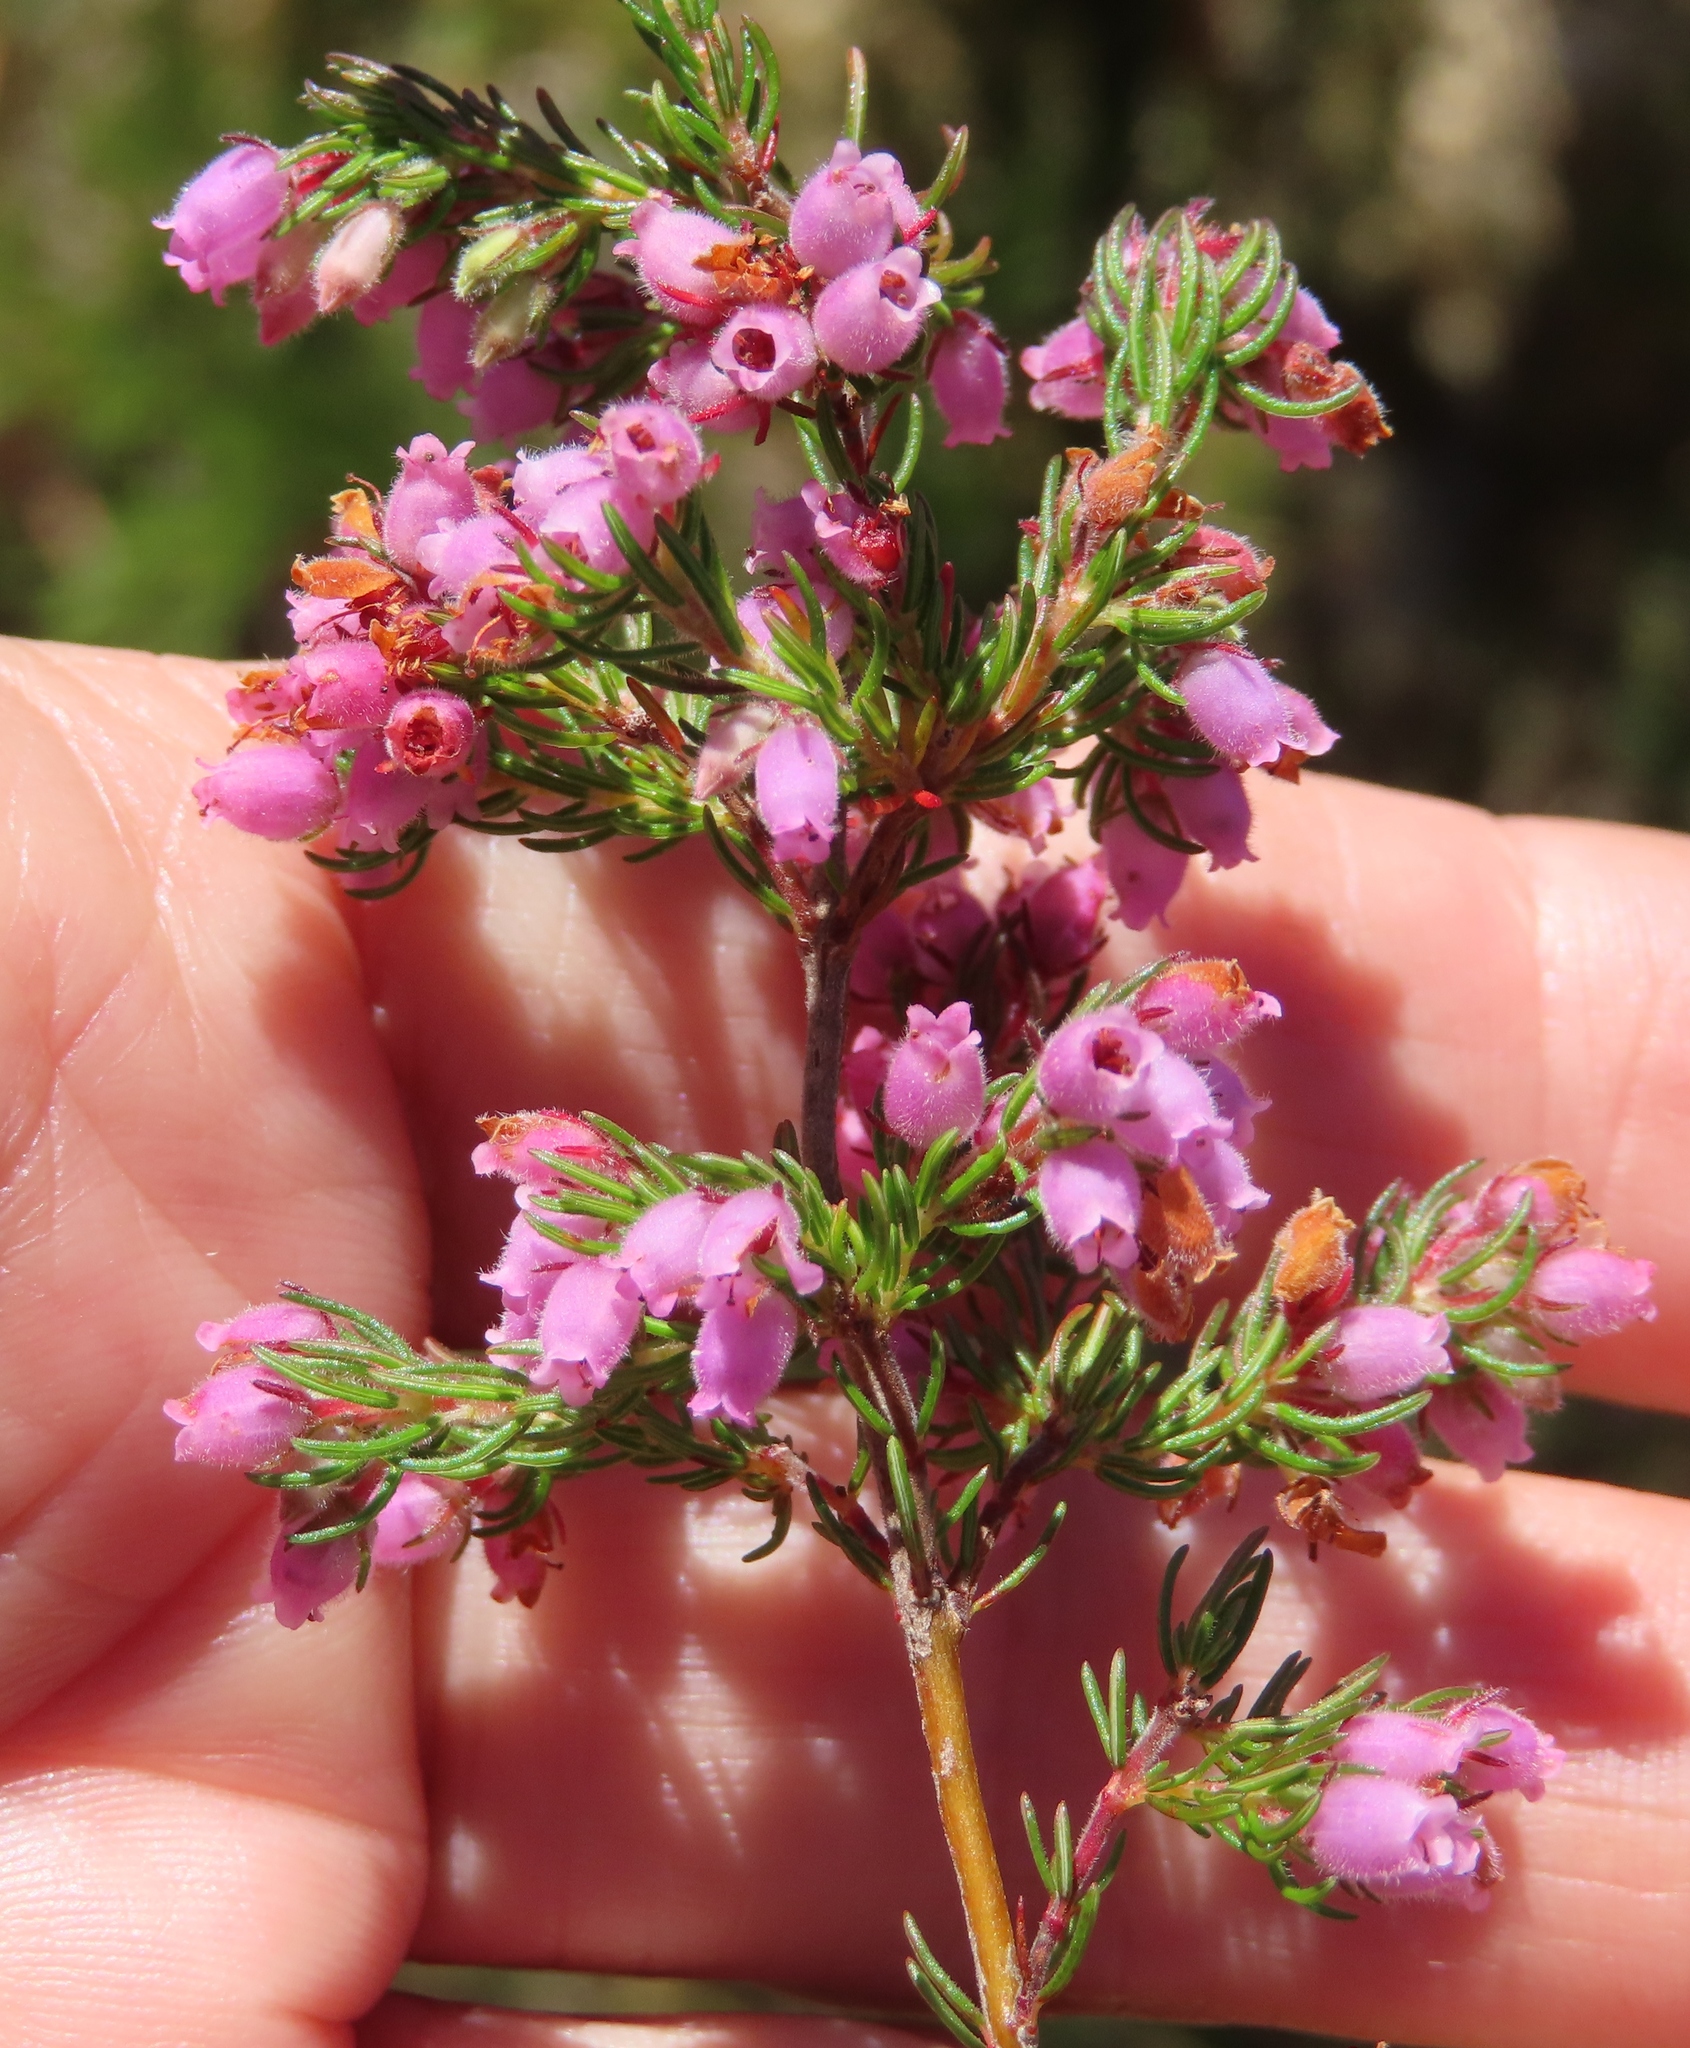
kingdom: Plantae
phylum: Tracheophyta
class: Magnoliopsida
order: Ericales
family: Ericaceae
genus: Erica
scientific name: Erica hirtiflora
